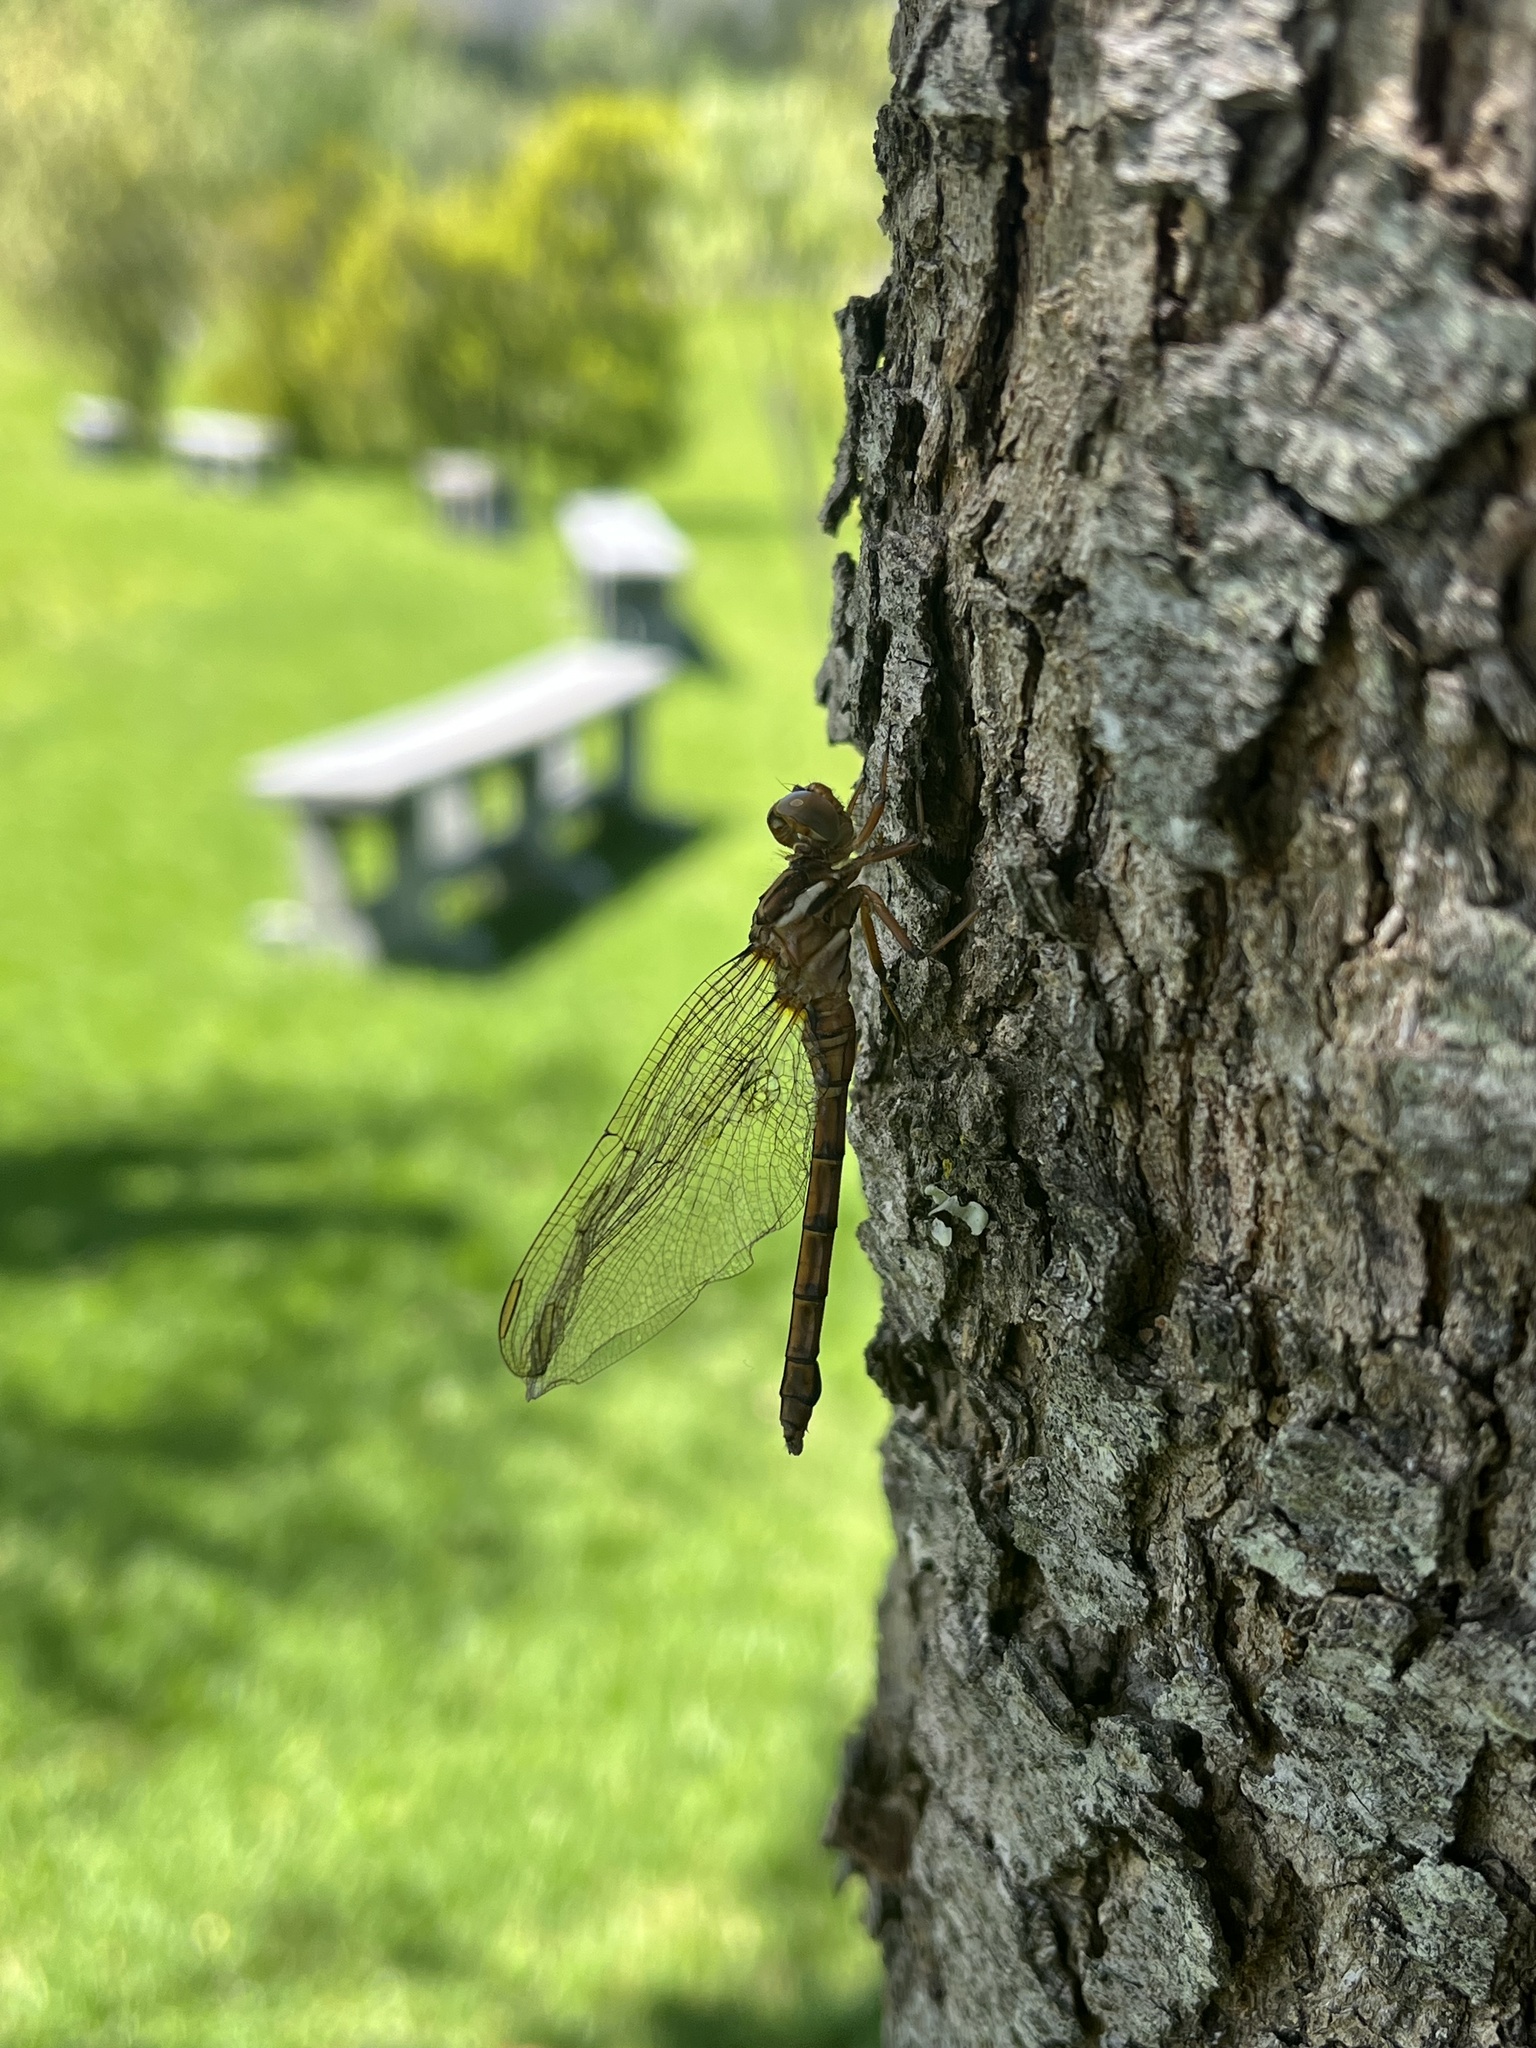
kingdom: Animalia
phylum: Arthropoda
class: Insecta
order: Odonata
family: Libellulidae
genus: Orthetrum
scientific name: Orthetrum julia
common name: Julia skimmer
